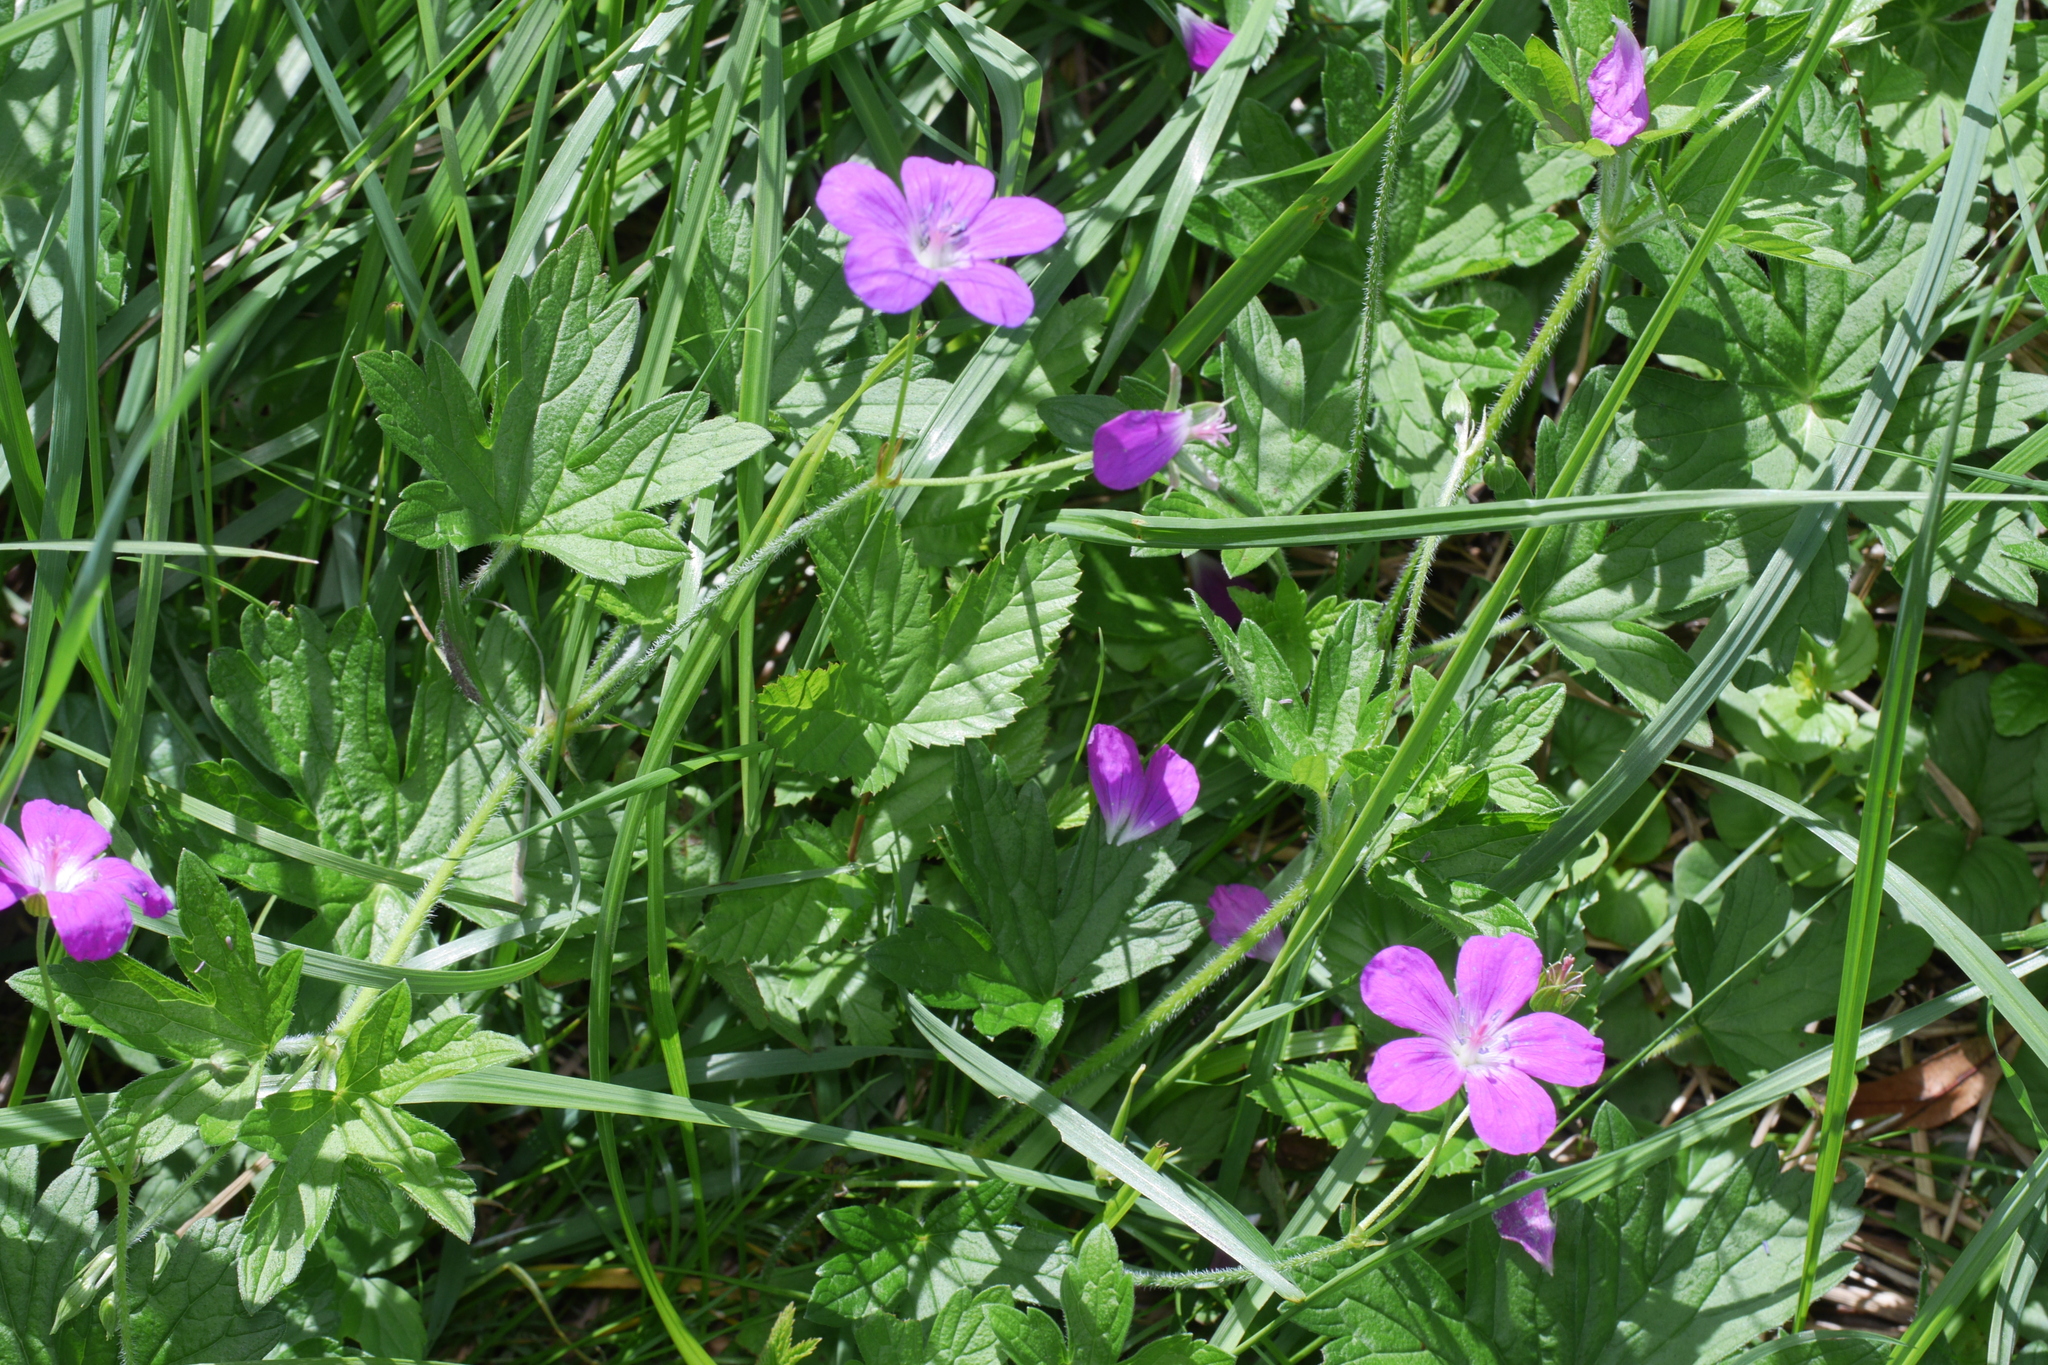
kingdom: Plantae
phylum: Tracheophyta
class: Magnoliopsida
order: Geraniales
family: Geraniaceae
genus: Geranium
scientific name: Geranium palustre
